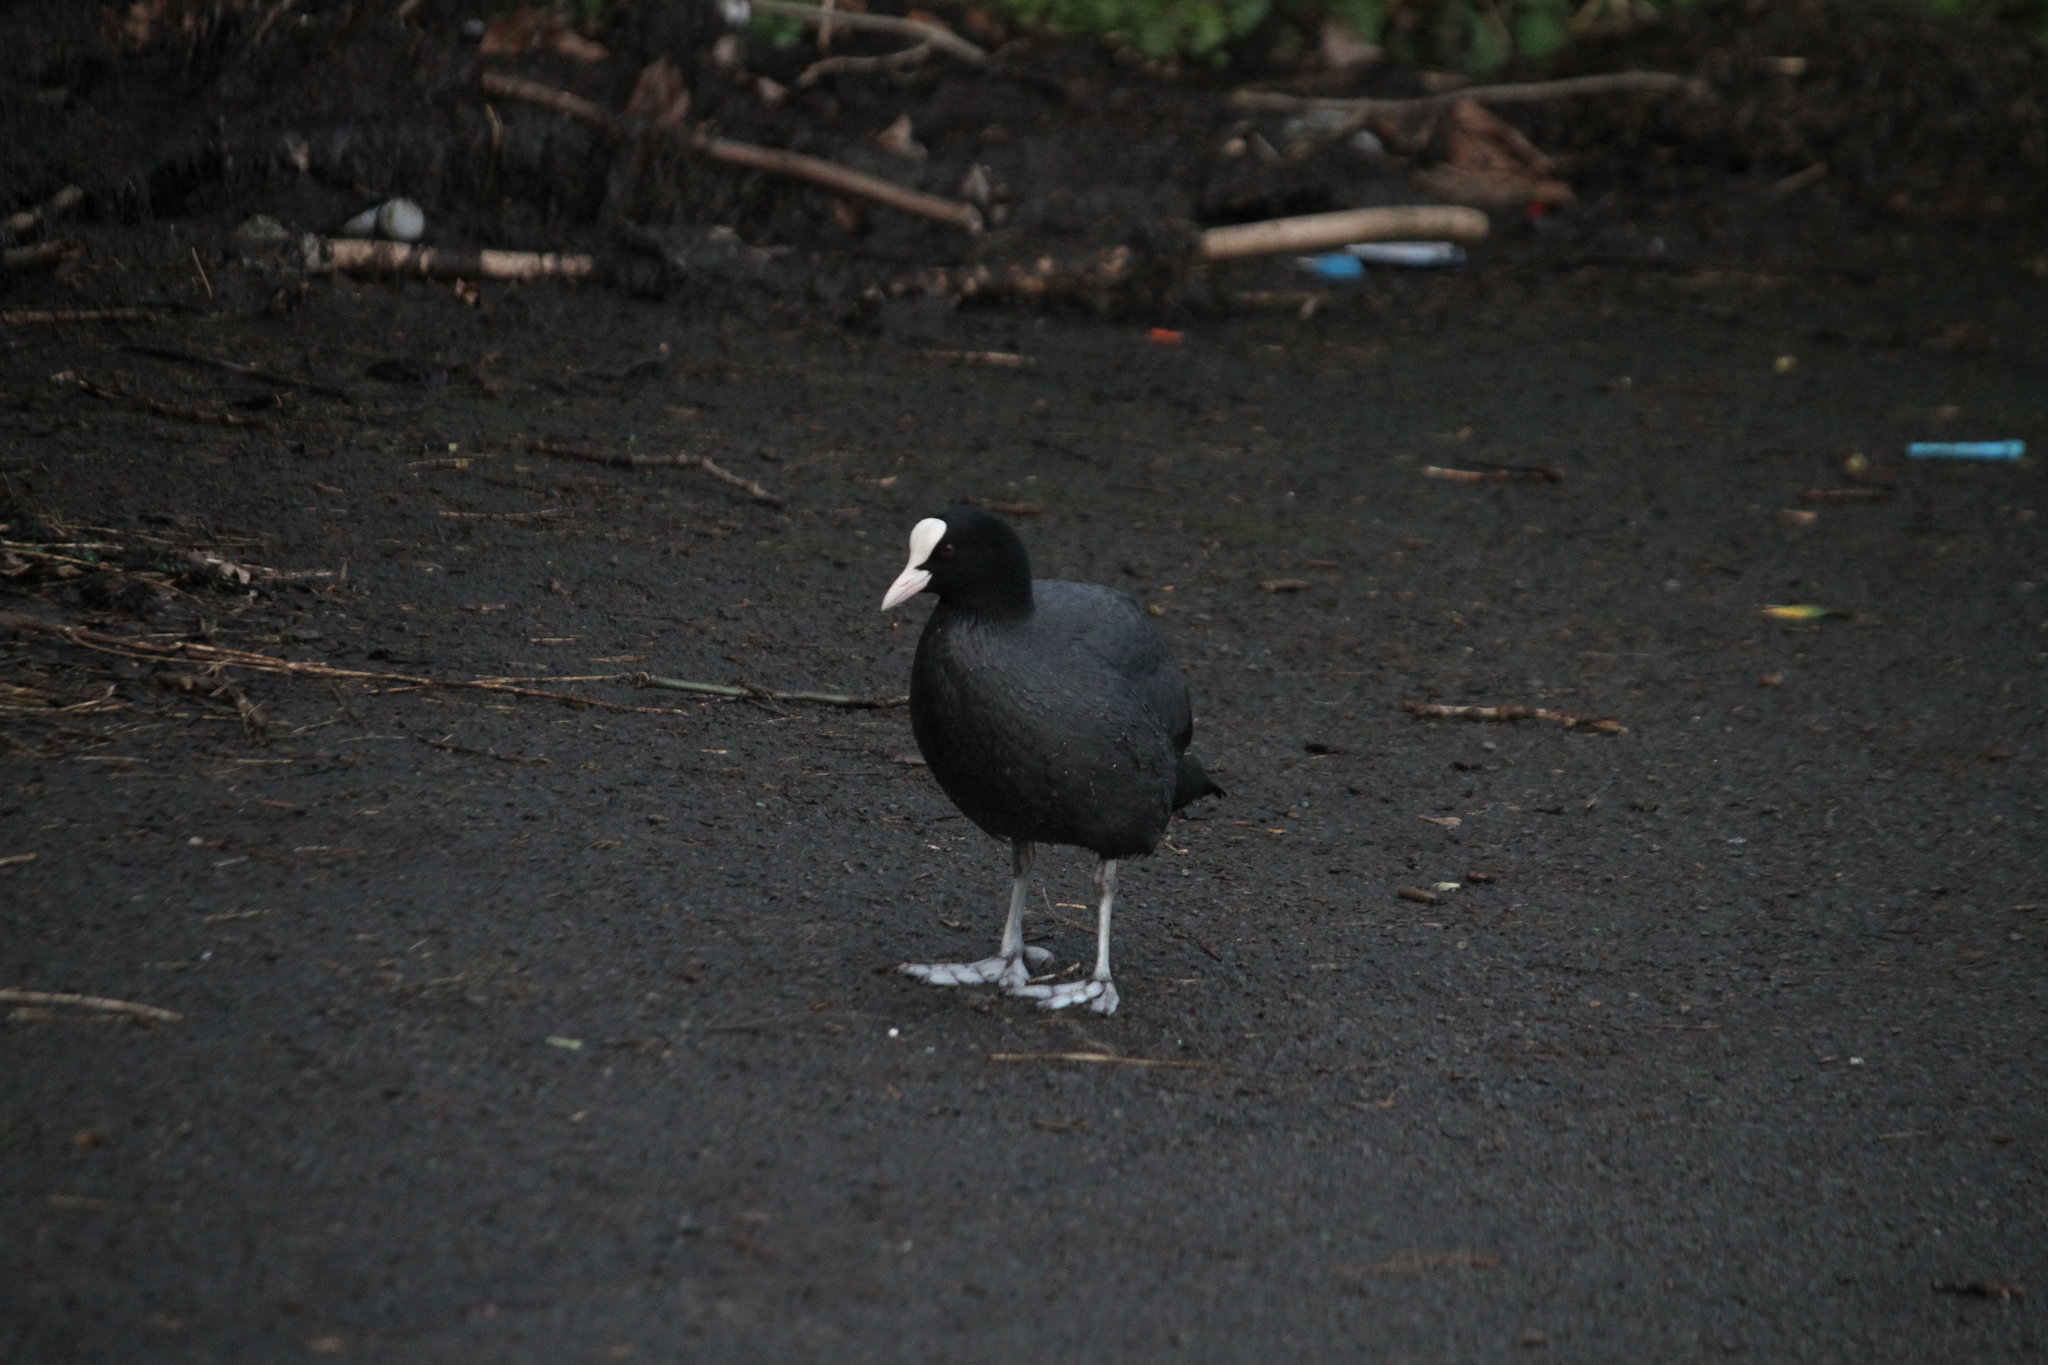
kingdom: Animalia
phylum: Chordata
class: Aves
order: Gruiformes
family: Rallidae
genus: Fulica
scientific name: Fulica atra
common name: Eurasian coot
